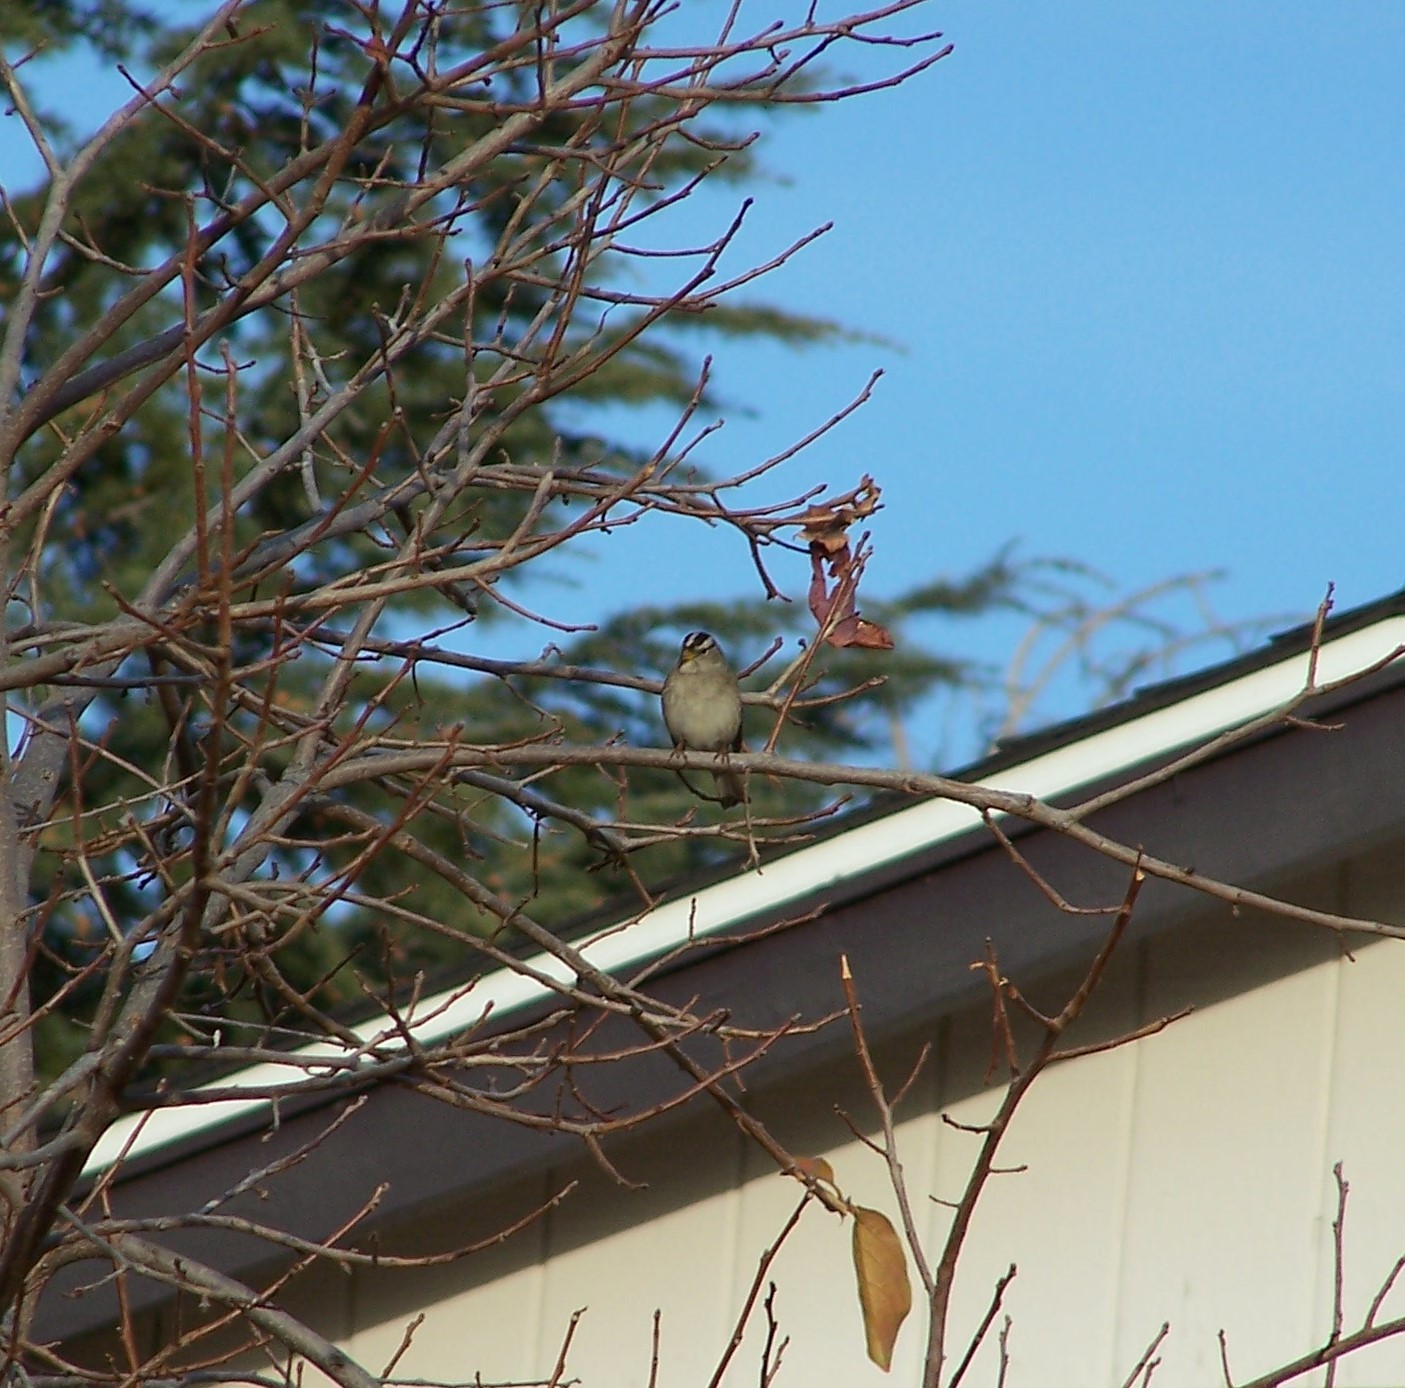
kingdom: Animalia
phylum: Chordata
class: Aves
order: Passeriformes
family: Passerellidae
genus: Zonotrichia
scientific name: Zonotrichia leucophrys
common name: White-crowned sparrow
